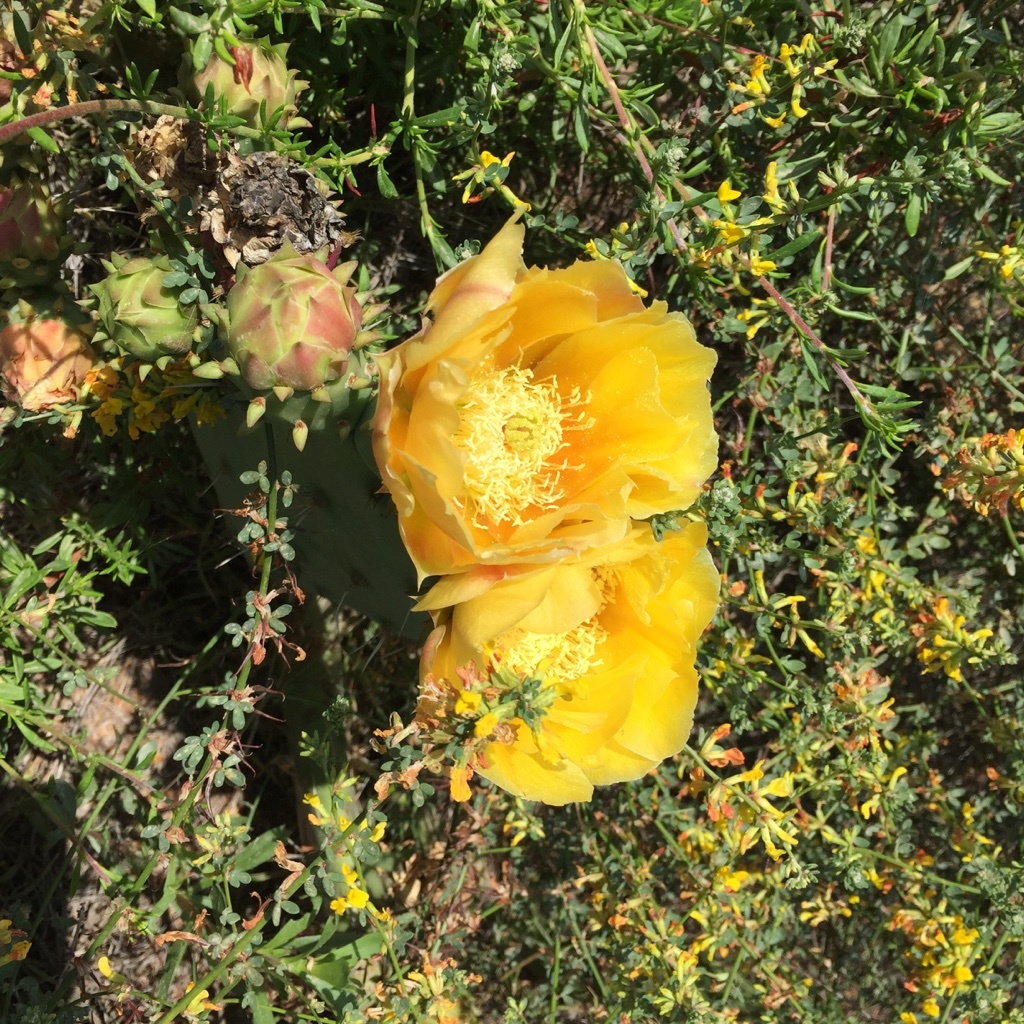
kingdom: Plantae
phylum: Tracheophyta
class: Magnoliopsida
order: Caryophyllales
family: Cactaceae
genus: Opuntia
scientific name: Opuntia littoralis
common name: Coastal prickly-pear
